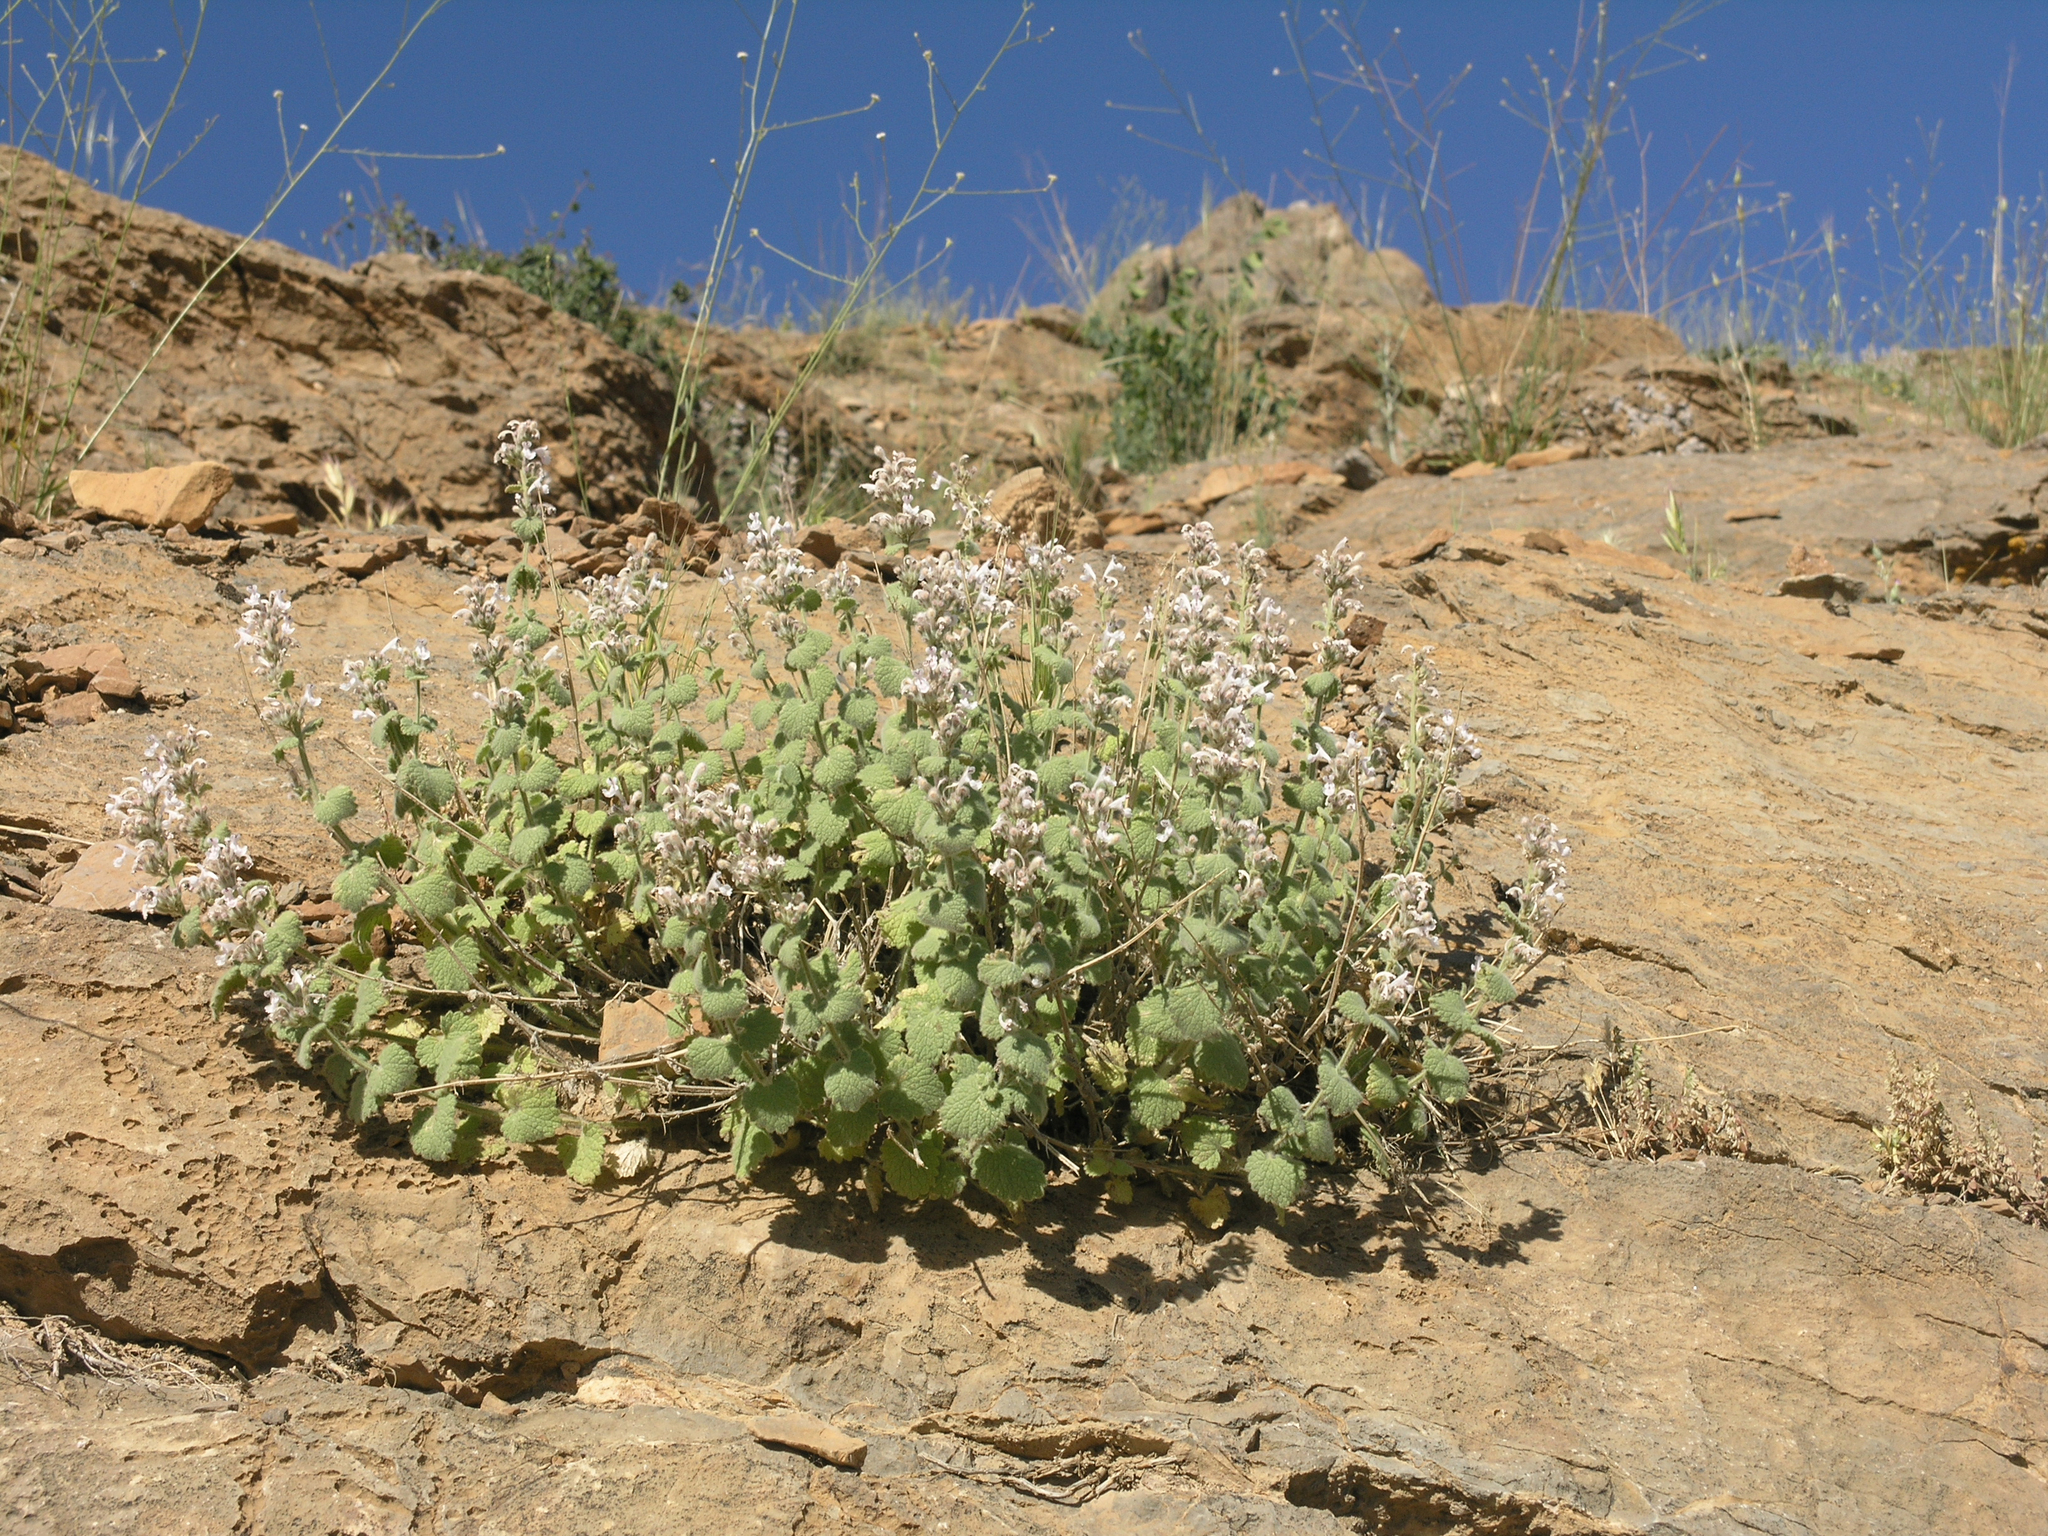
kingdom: Plantae
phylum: Tracheophyta
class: Magnoliopsida
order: Lamiales
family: Lamiaceae
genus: Nepeta
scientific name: Nepeta persica
